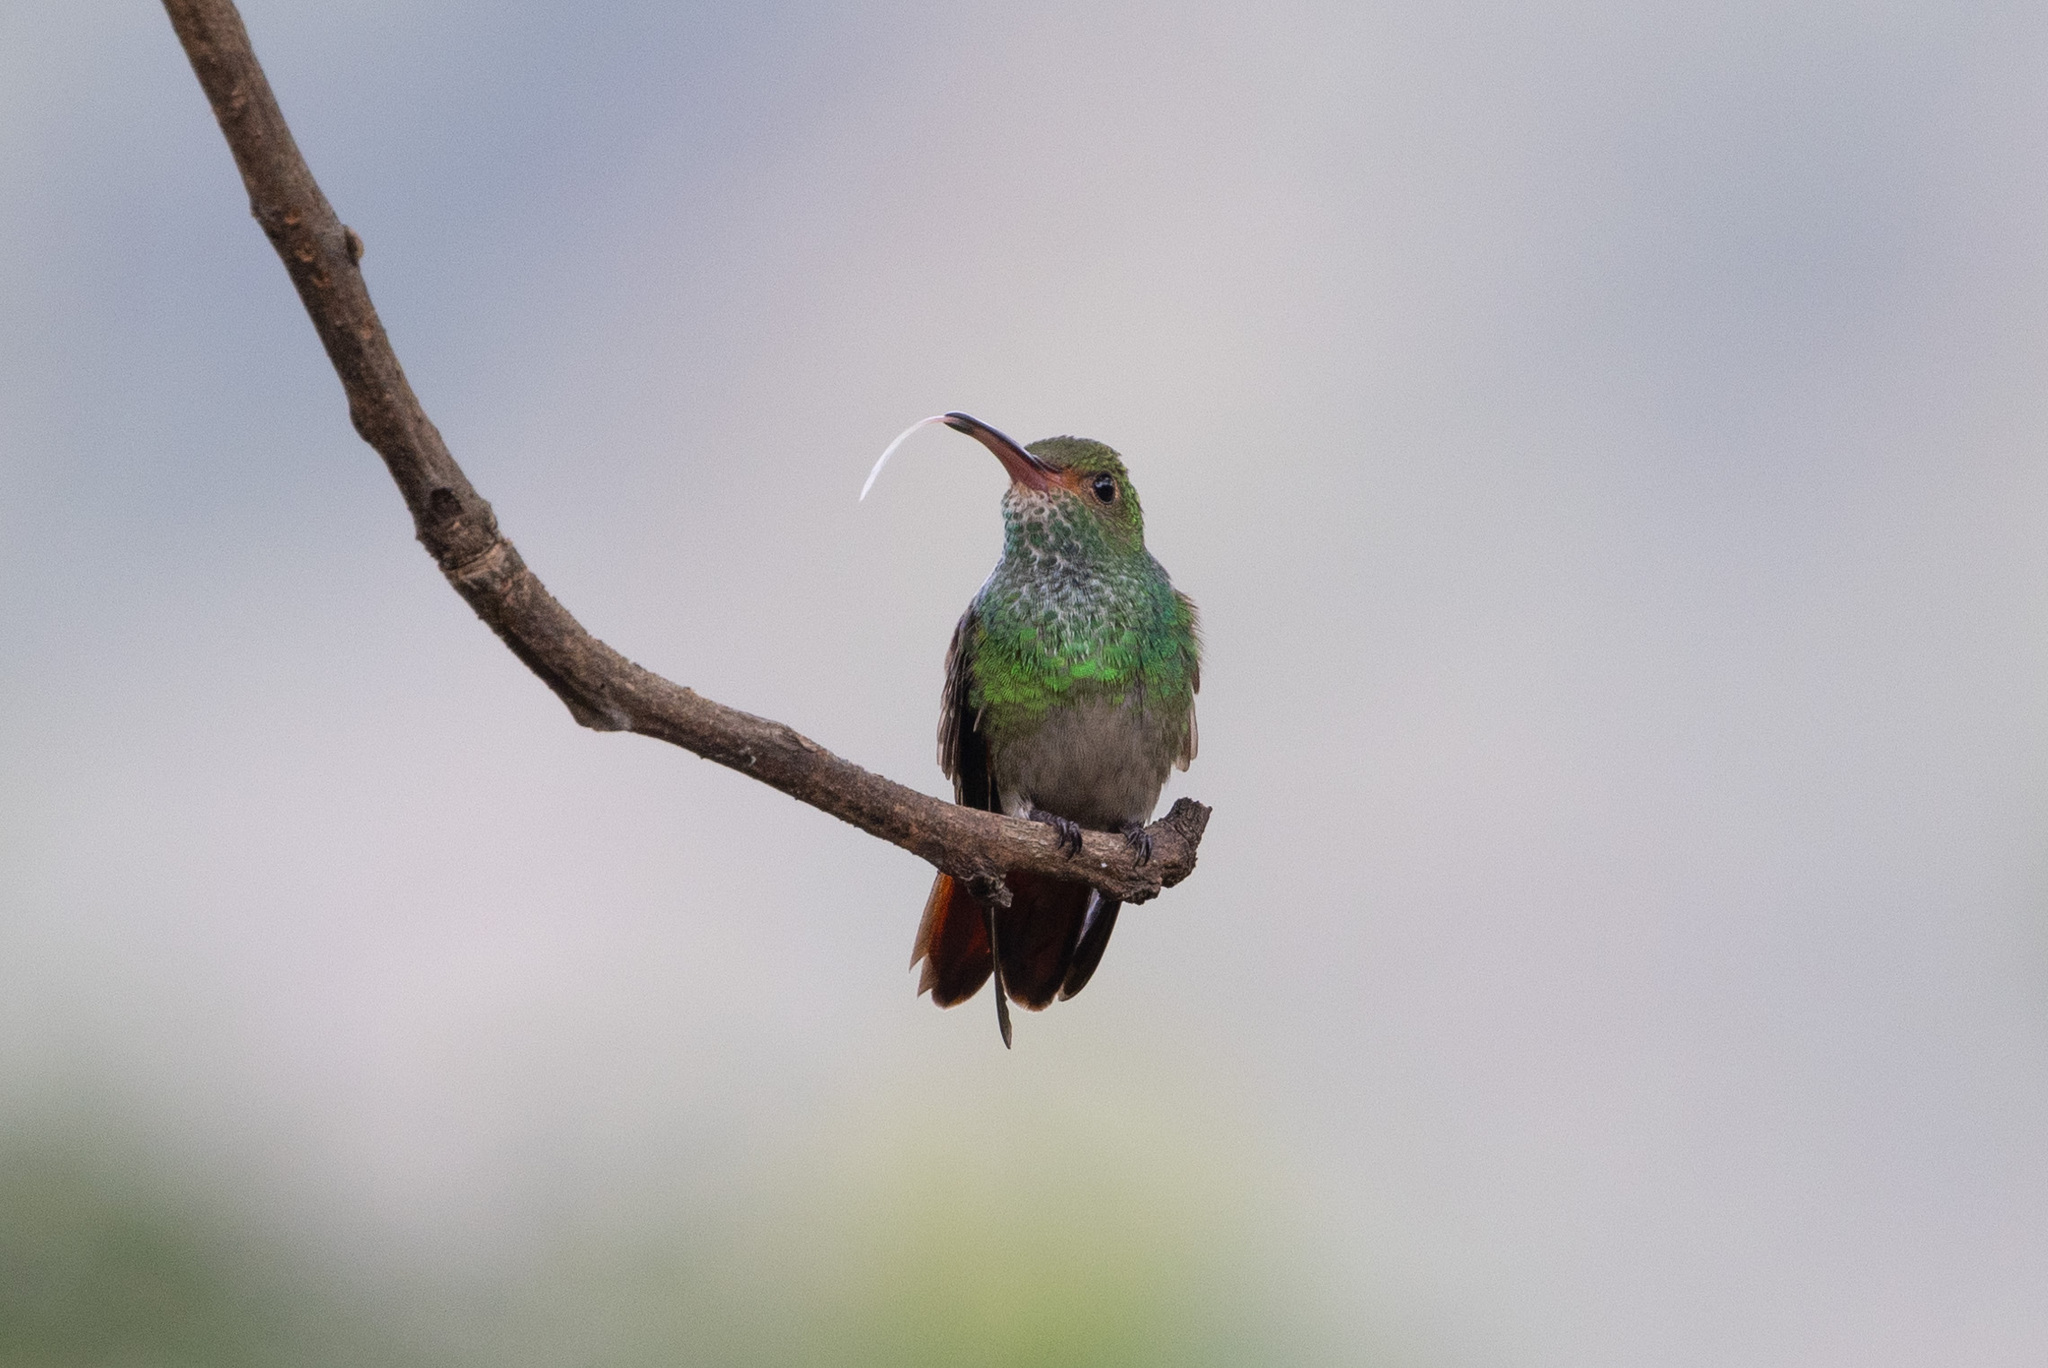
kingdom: Animalia
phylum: Chordata
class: Aves
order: Apodiformes
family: Trochilidae
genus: Amazilia
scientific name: Amazilia tzacatl
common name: Rufous-tailed hummingbird
